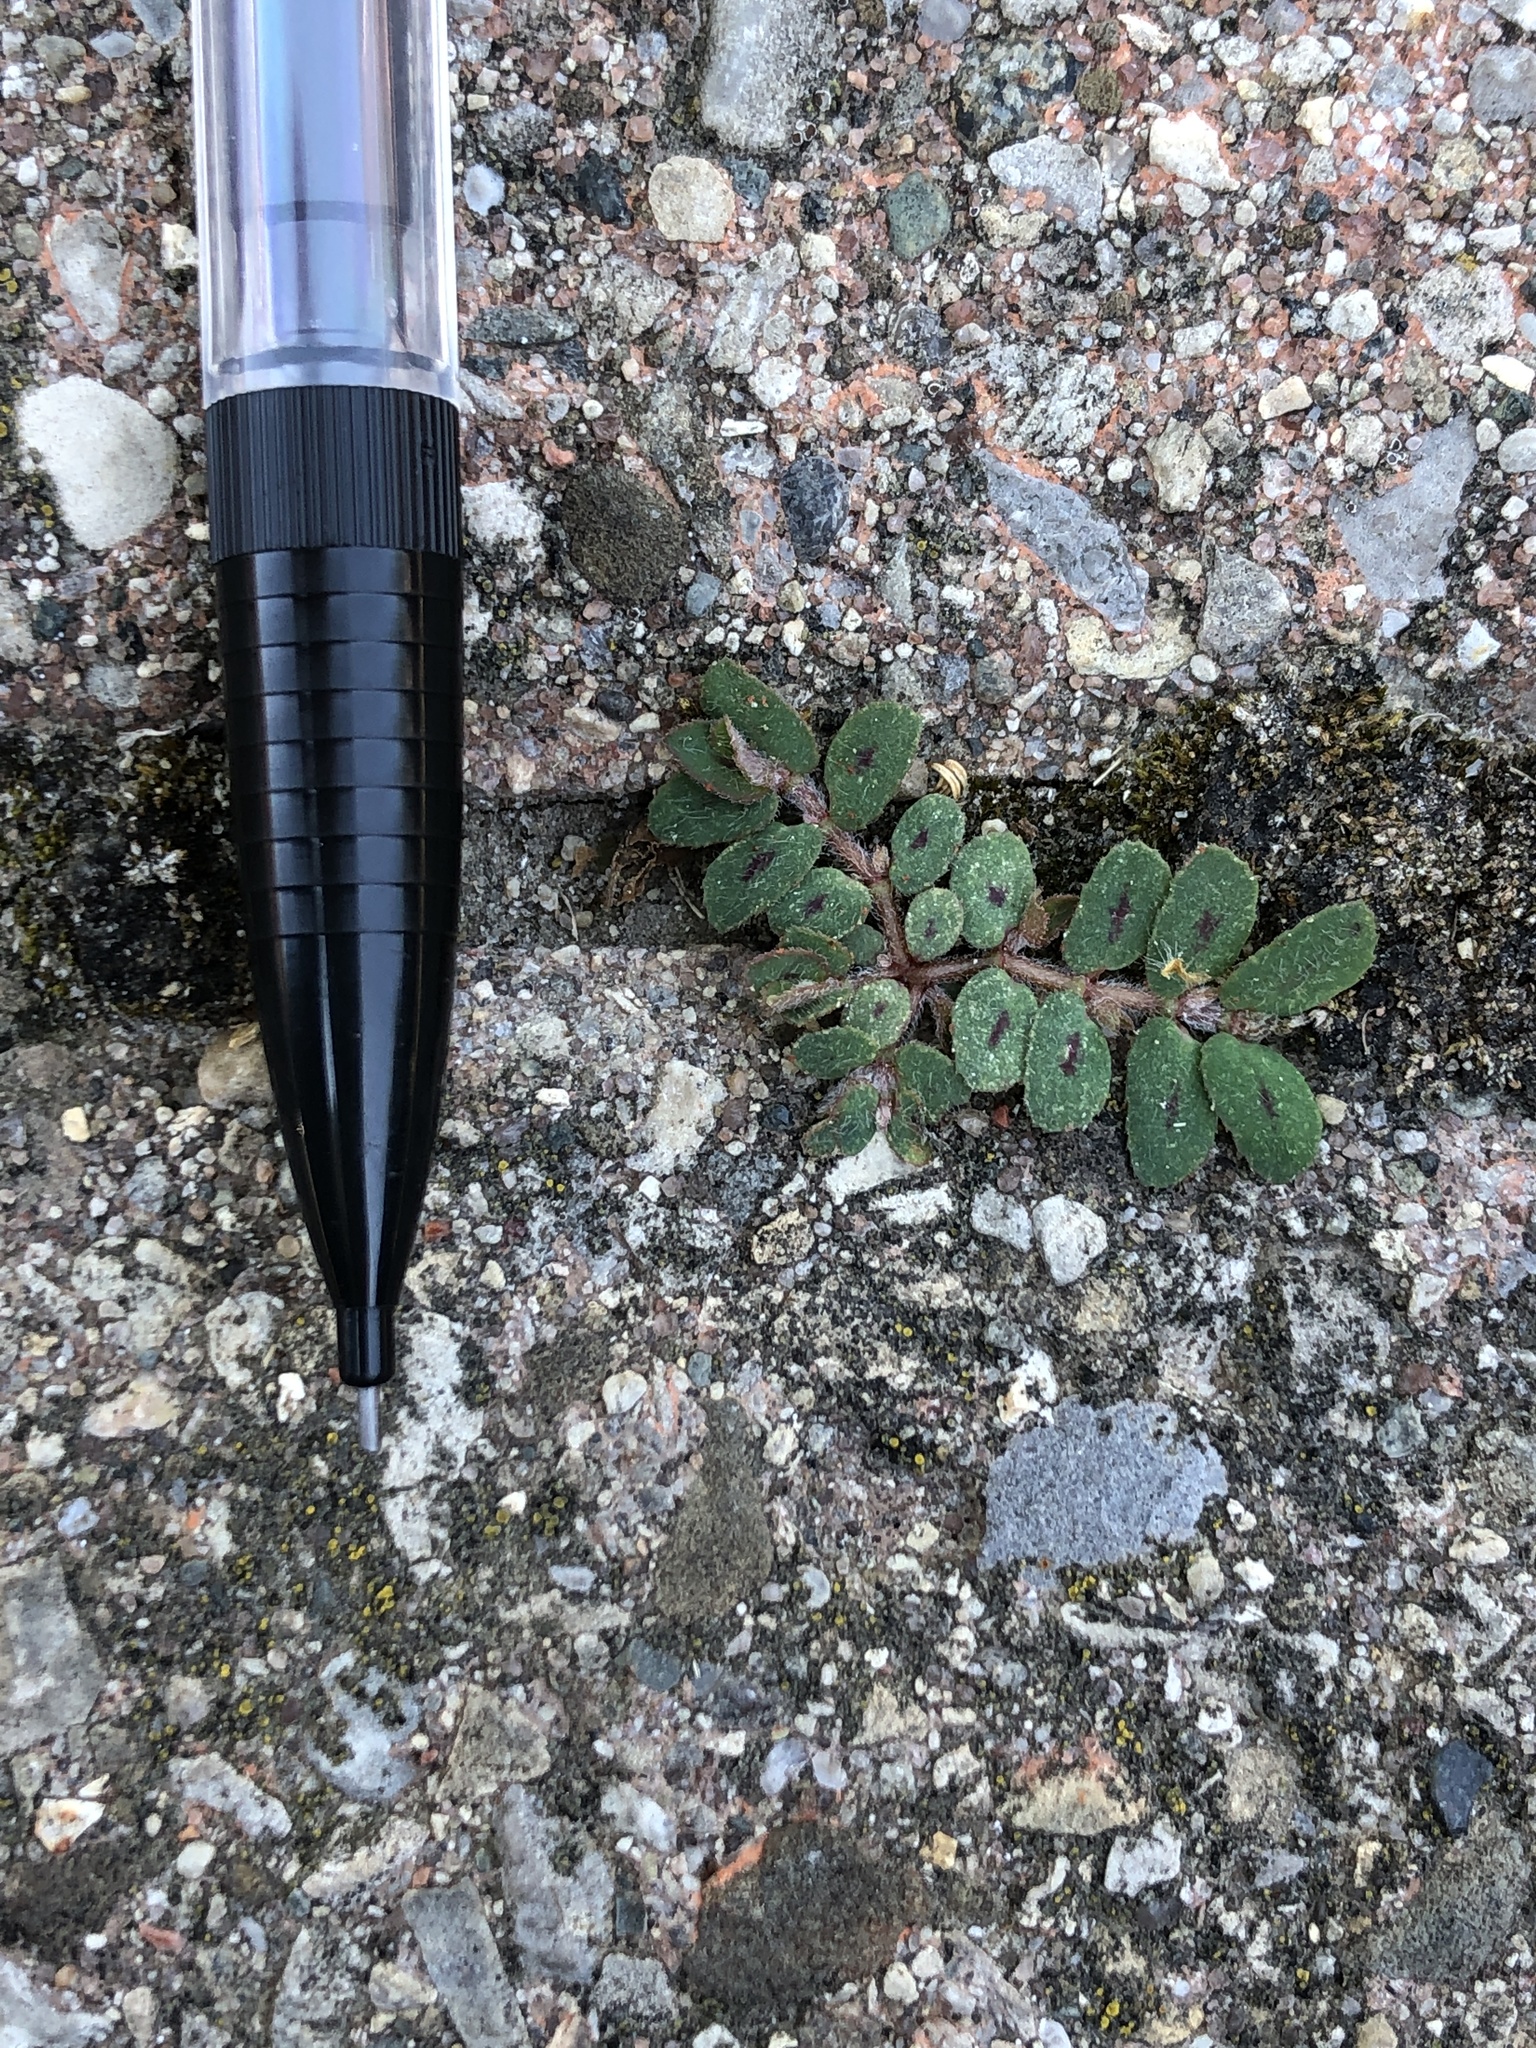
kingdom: Plantae
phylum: Tracheophyta
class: Magnoliopsida
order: Malpighiales
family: Euphorbiaceae
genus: Euphorbia
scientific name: Euphorbia maculata
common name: Spotted spurge
